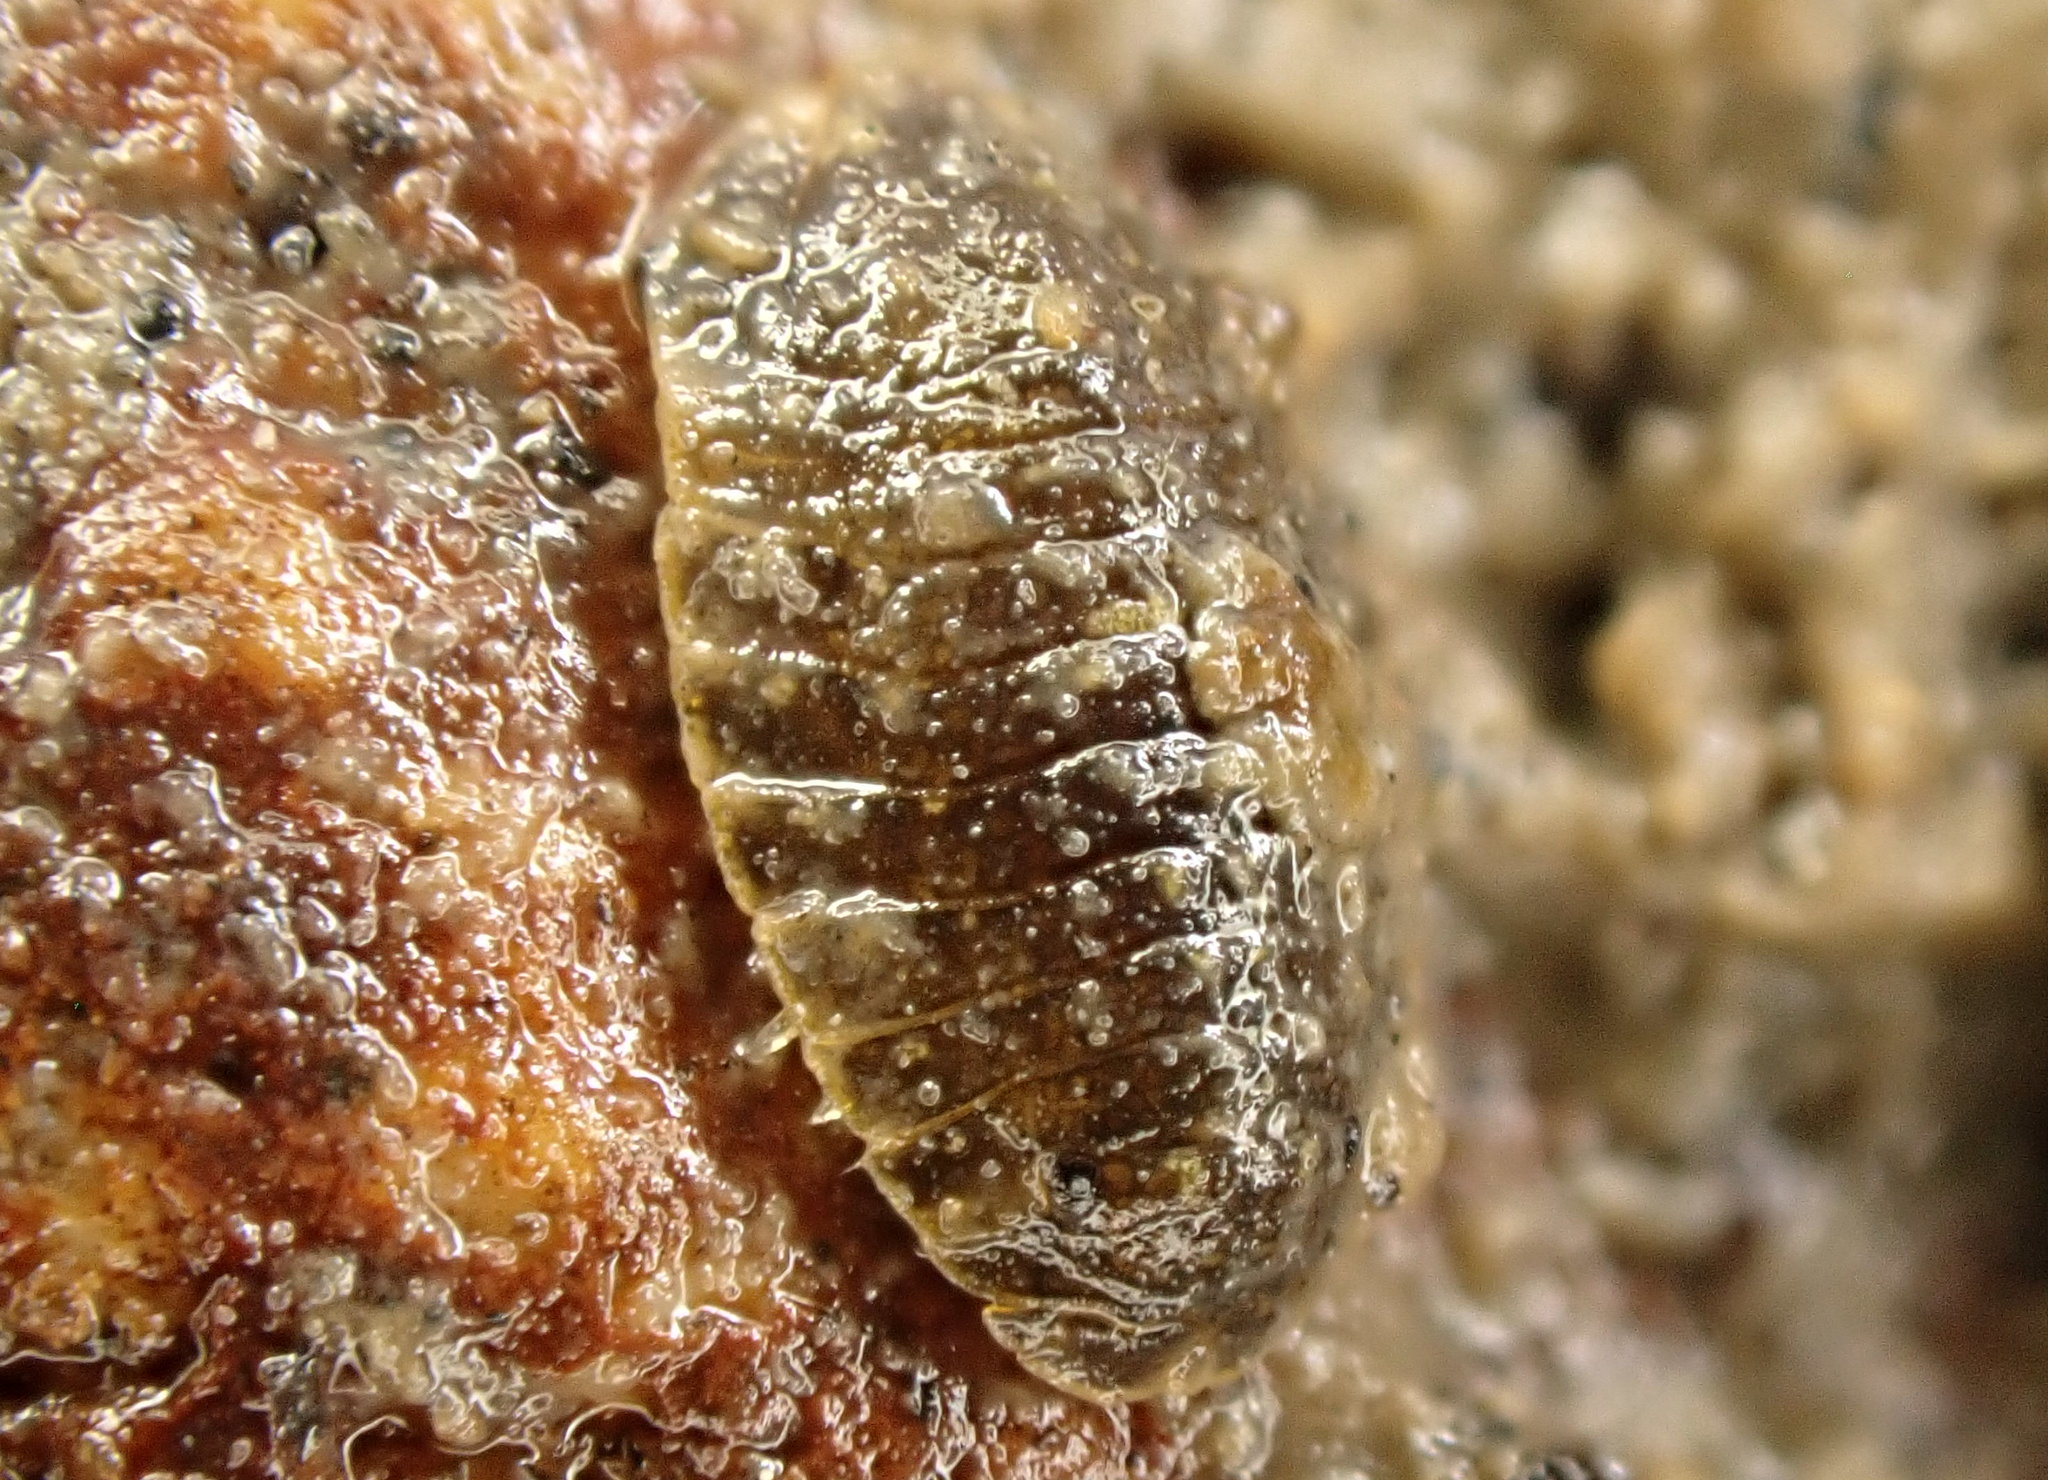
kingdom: Animalia
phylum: Arthropoda
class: Malacostraca
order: Isopoda
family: Sphaeromatidae
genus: Exosphaeroma
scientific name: Exosphaeroma planulum
